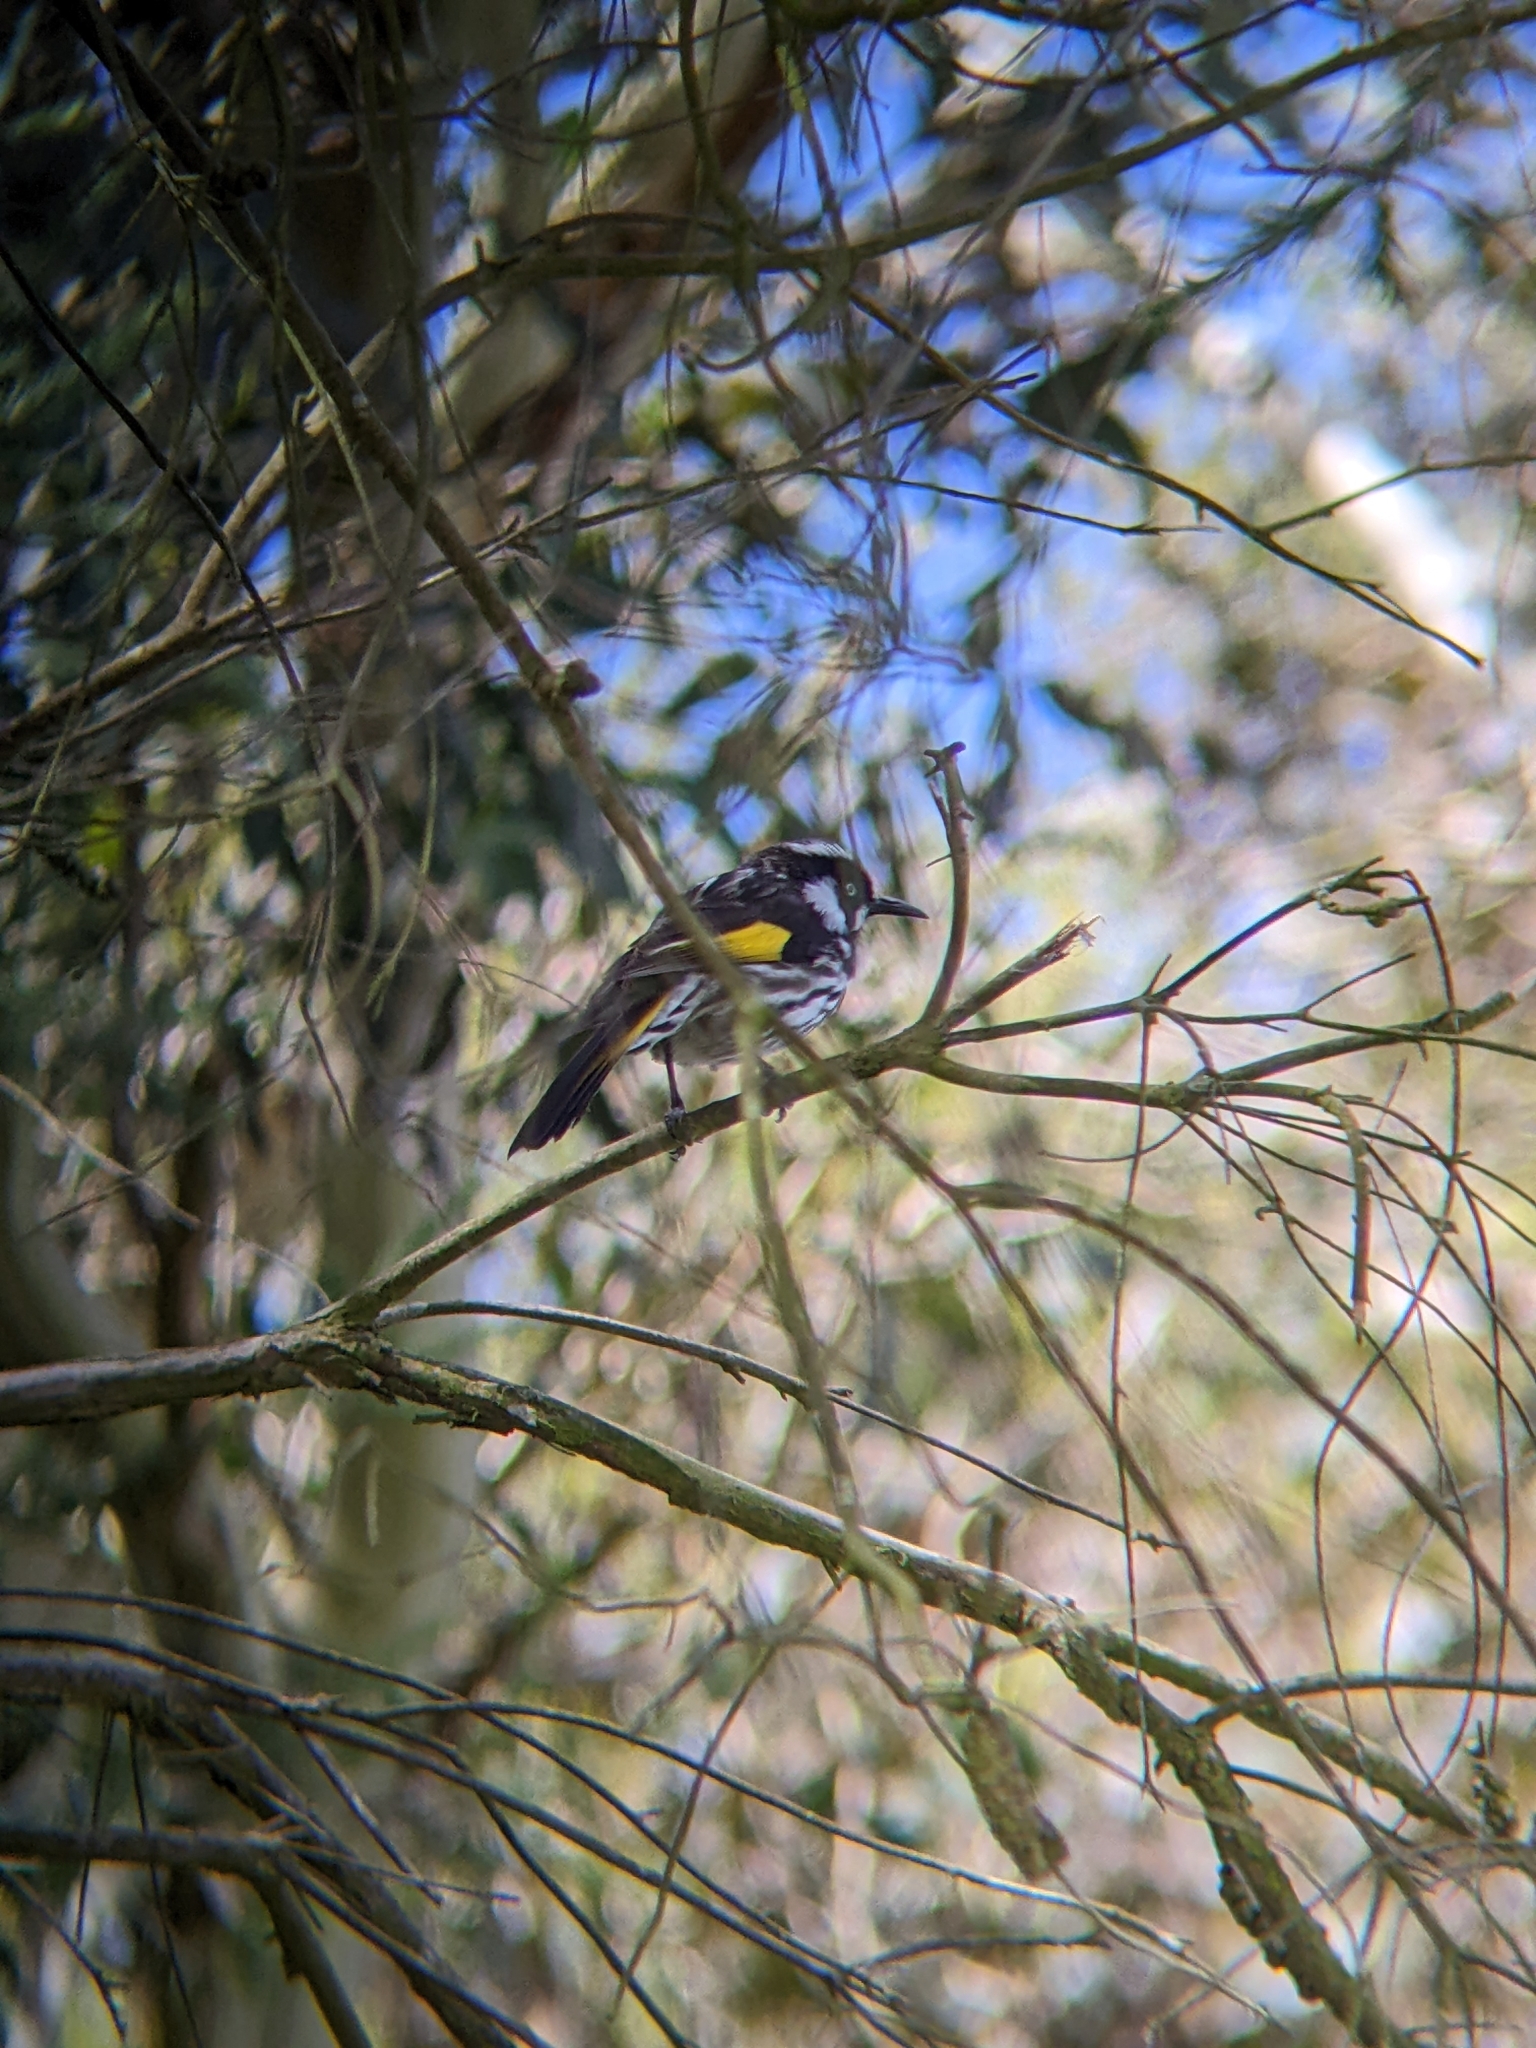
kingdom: Animalia
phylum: Chordata
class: Aves
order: Passeriformes
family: Meliphagidae
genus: Phylidonyris
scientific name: Phylidonyris novaehollandiae
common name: New holland honeyeater
